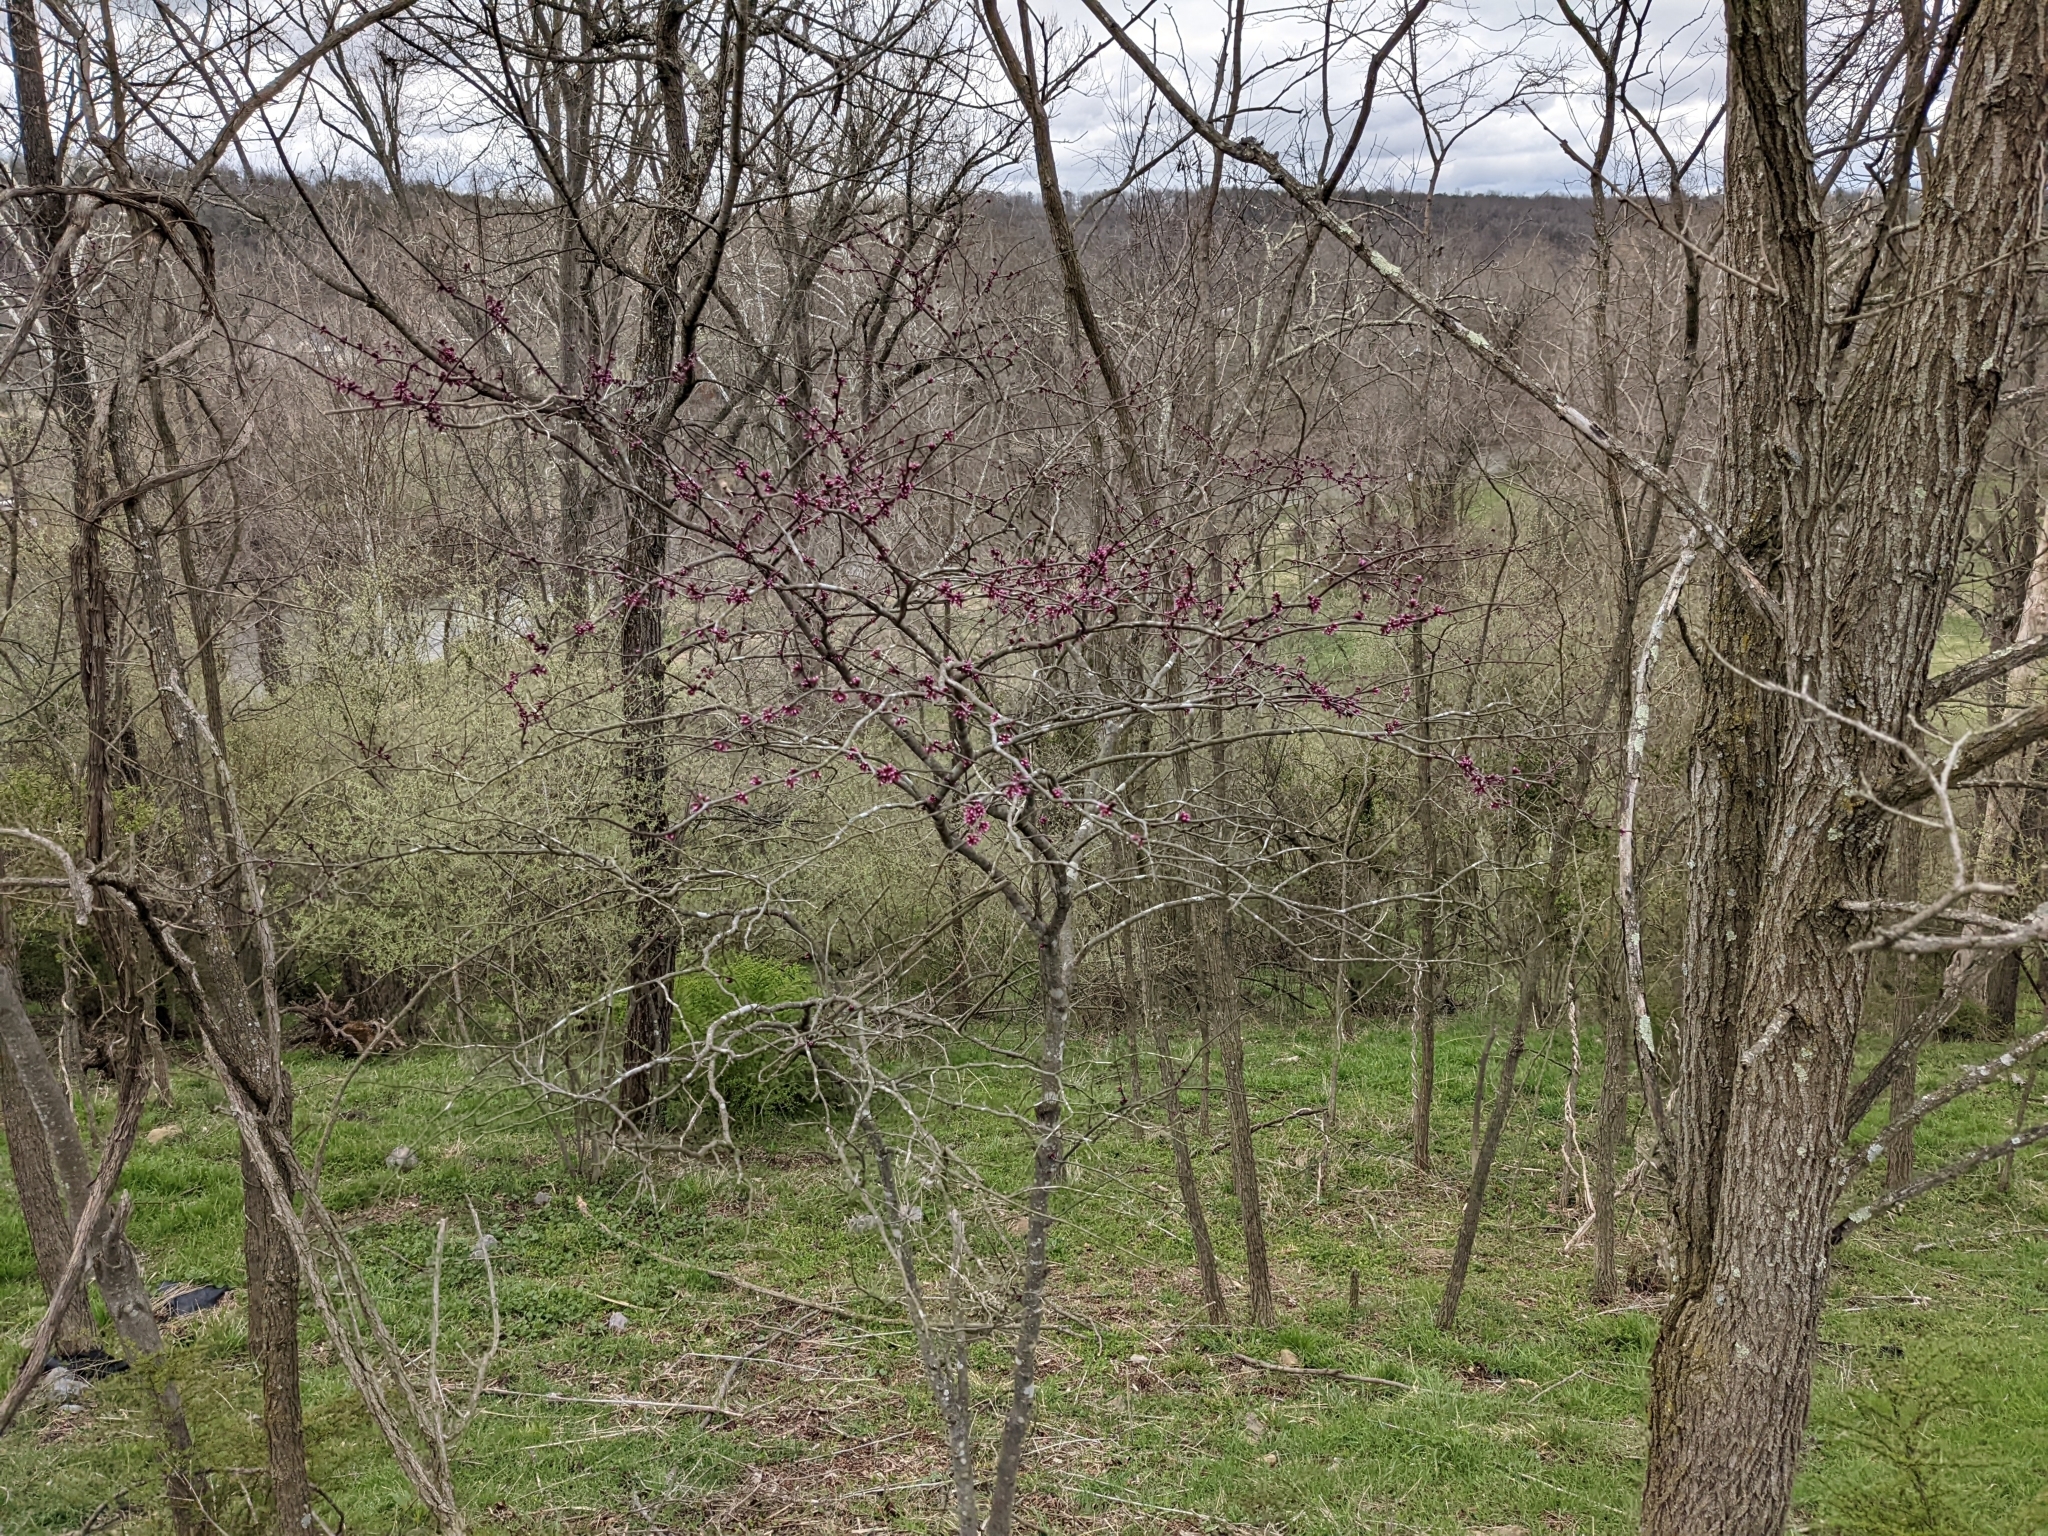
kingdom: Plantae
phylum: Tracheophyta
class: Magnoliopsida
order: Fabales
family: Fabaceae
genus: Cercis
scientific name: Cercis canadensis
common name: Eastern redbud
